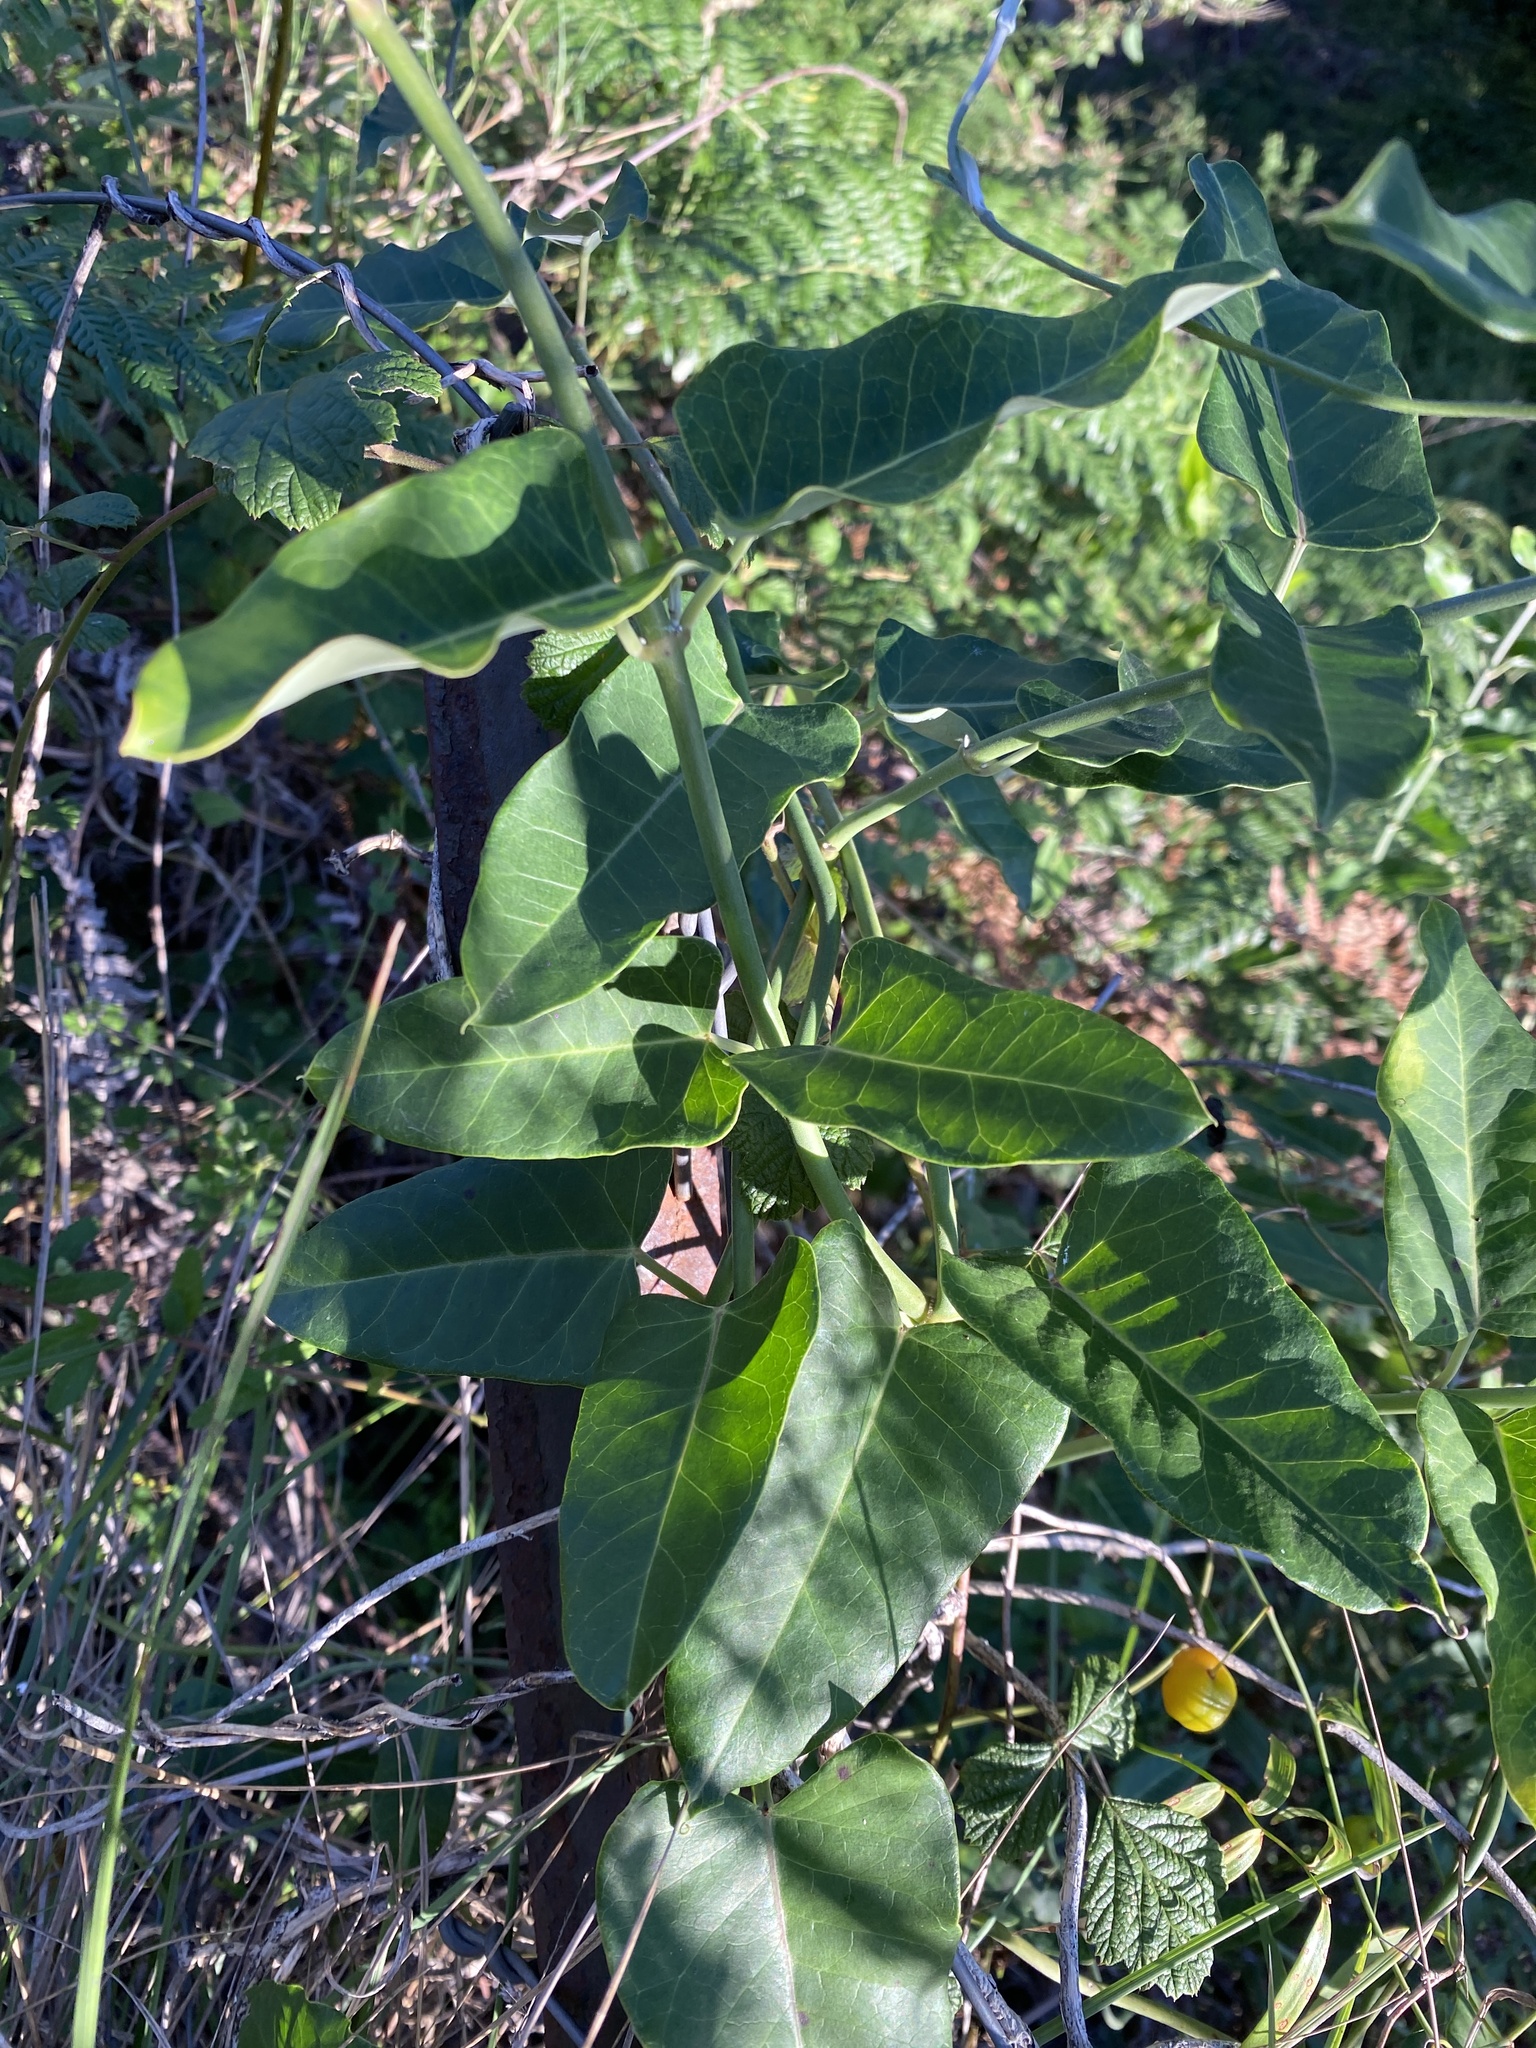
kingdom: Plantae
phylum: Tracheophyta
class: Magnoliopsida
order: Gentianales
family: Apocynaceae
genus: Araujia
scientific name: Araujia sericifera
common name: White bladderflower
